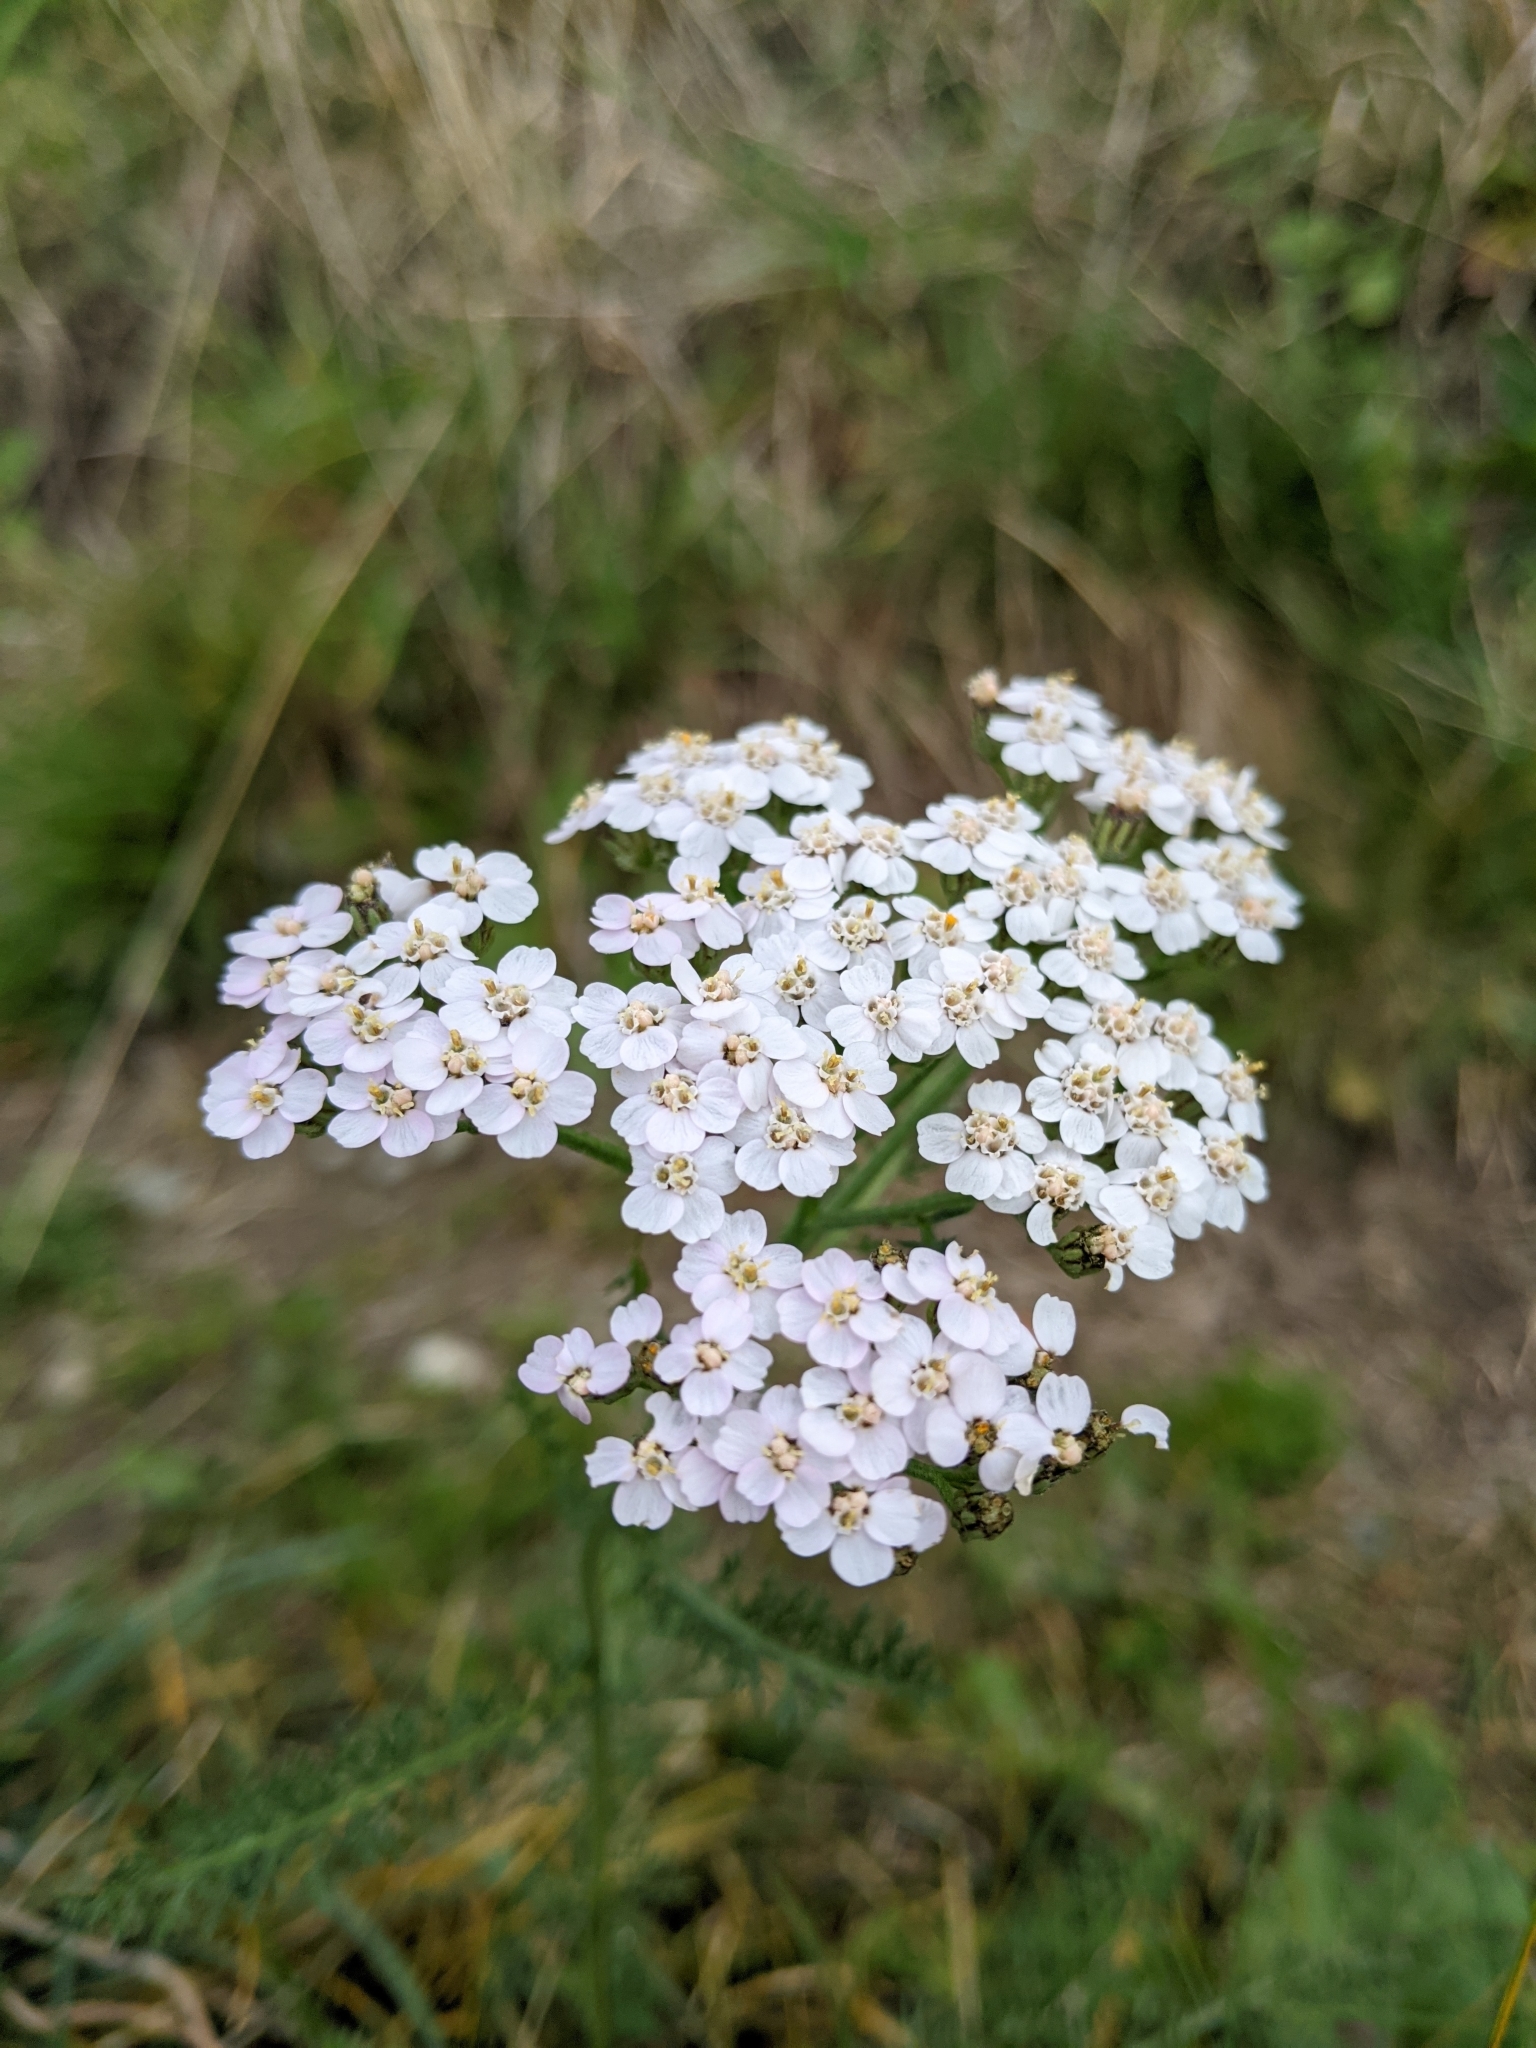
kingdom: Plantae
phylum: Tracheophyta
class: Magnoliopsida
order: Asterales
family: Asteraceae
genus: Achillea
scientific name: Achillea millefolium
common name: Yarrow
